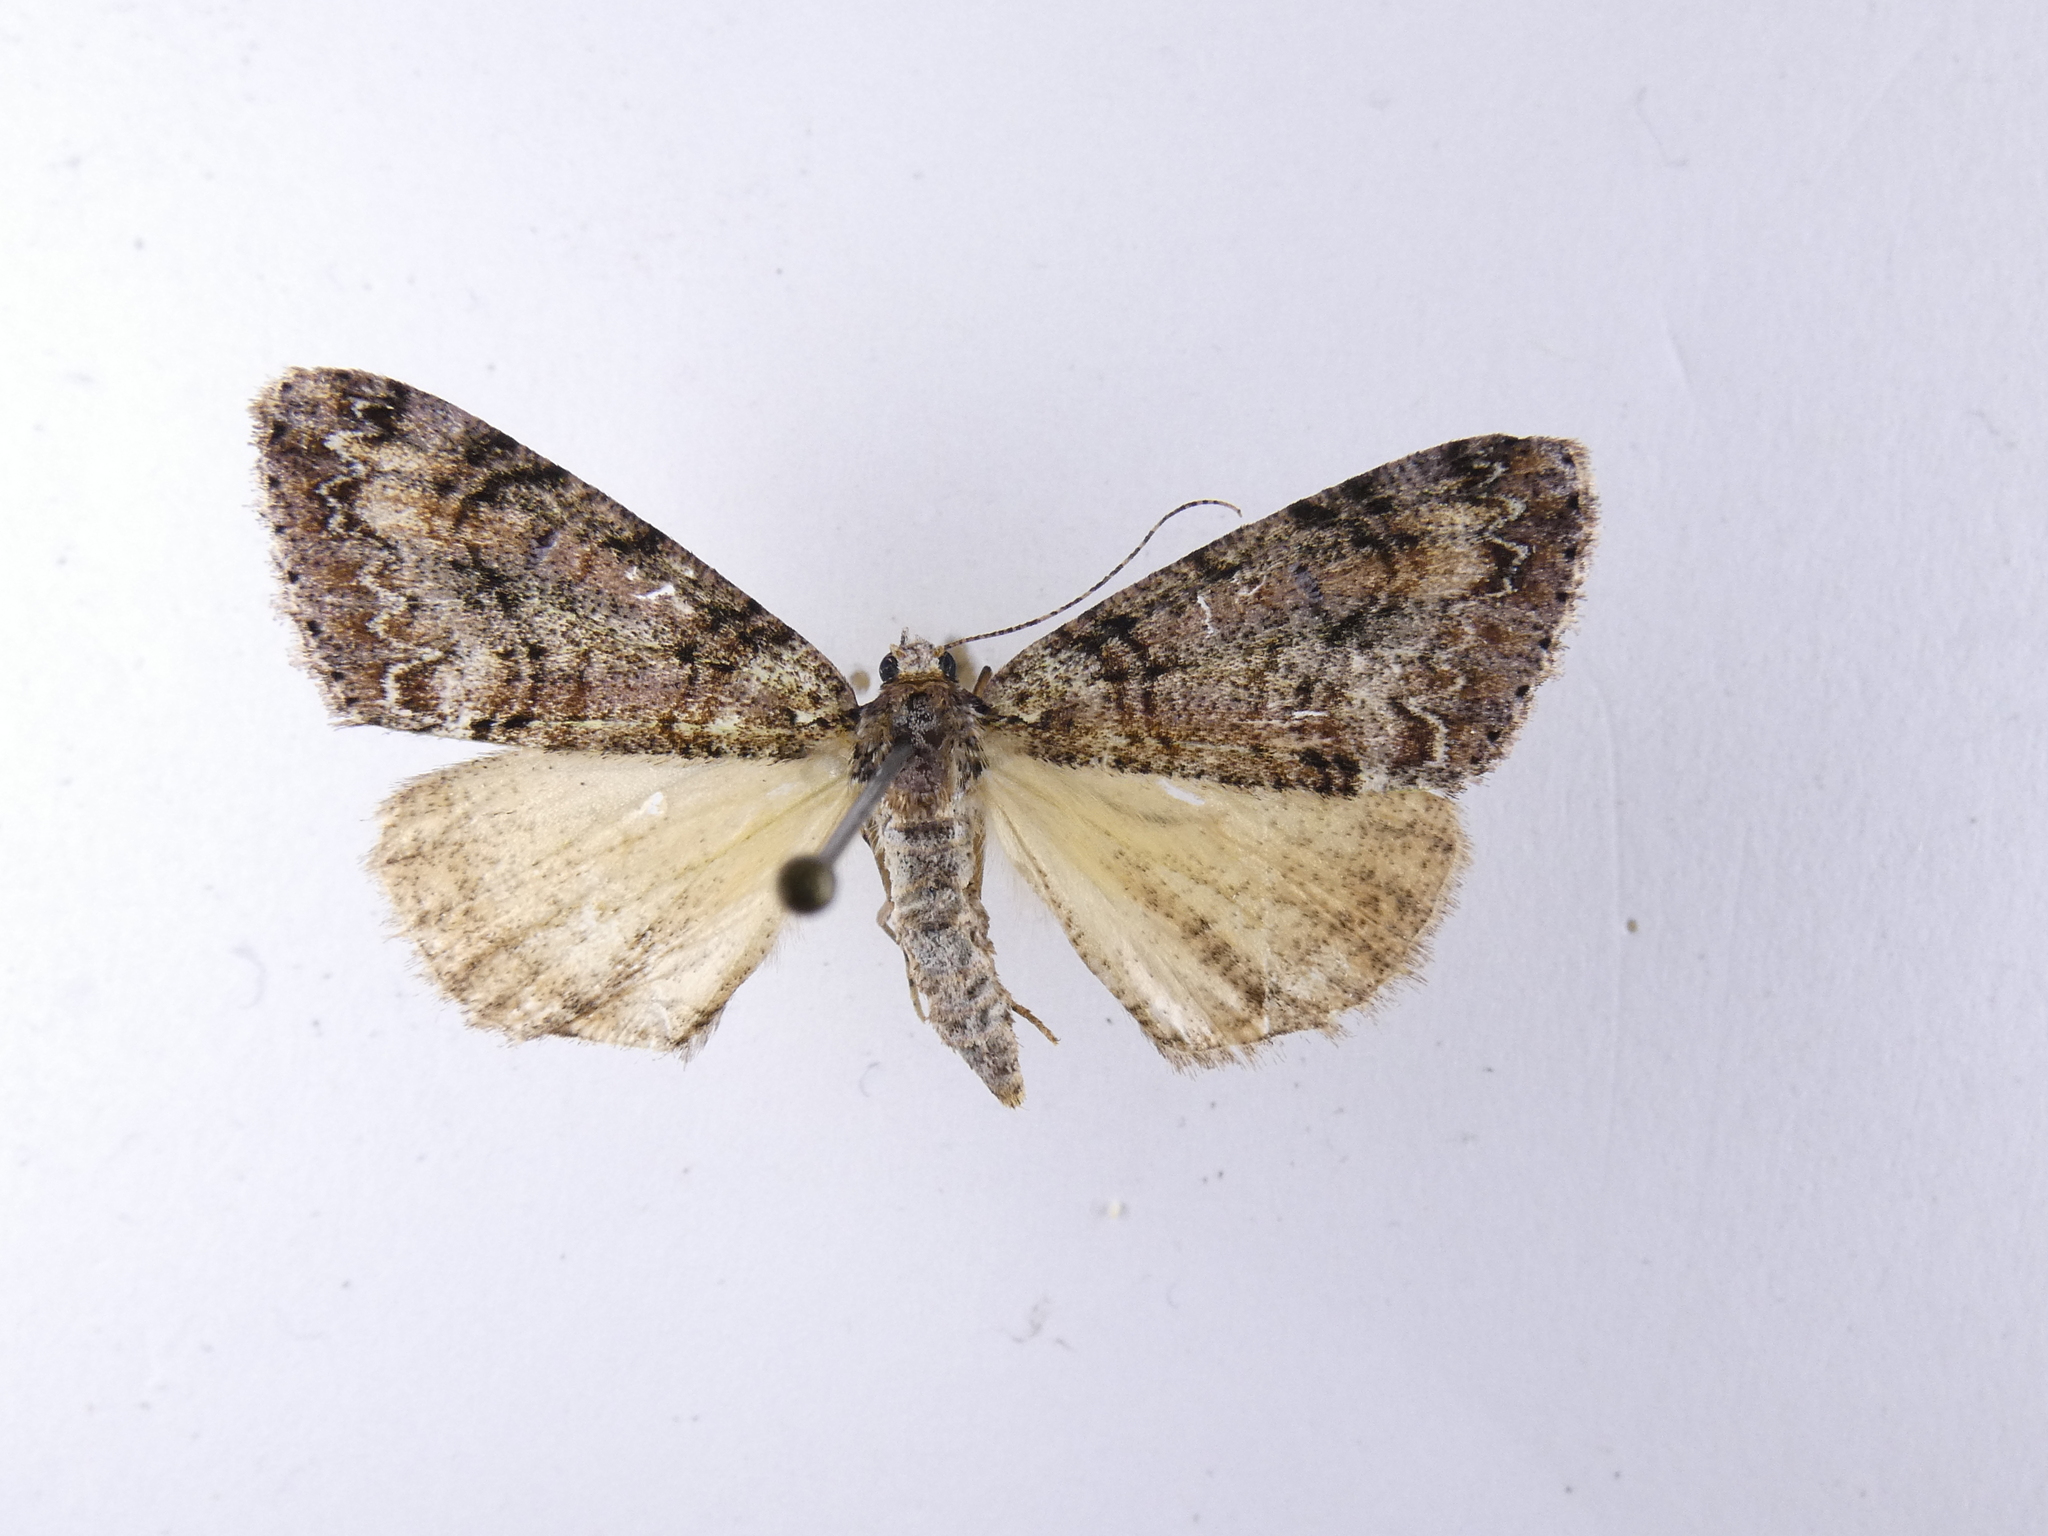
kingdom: Animalia
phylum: Arthropoda
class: Insecta
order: Lepidoptera
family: Geometridae
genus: Pseudocoremia
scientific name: Pseudocoremia suavis
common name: Common forest looper
